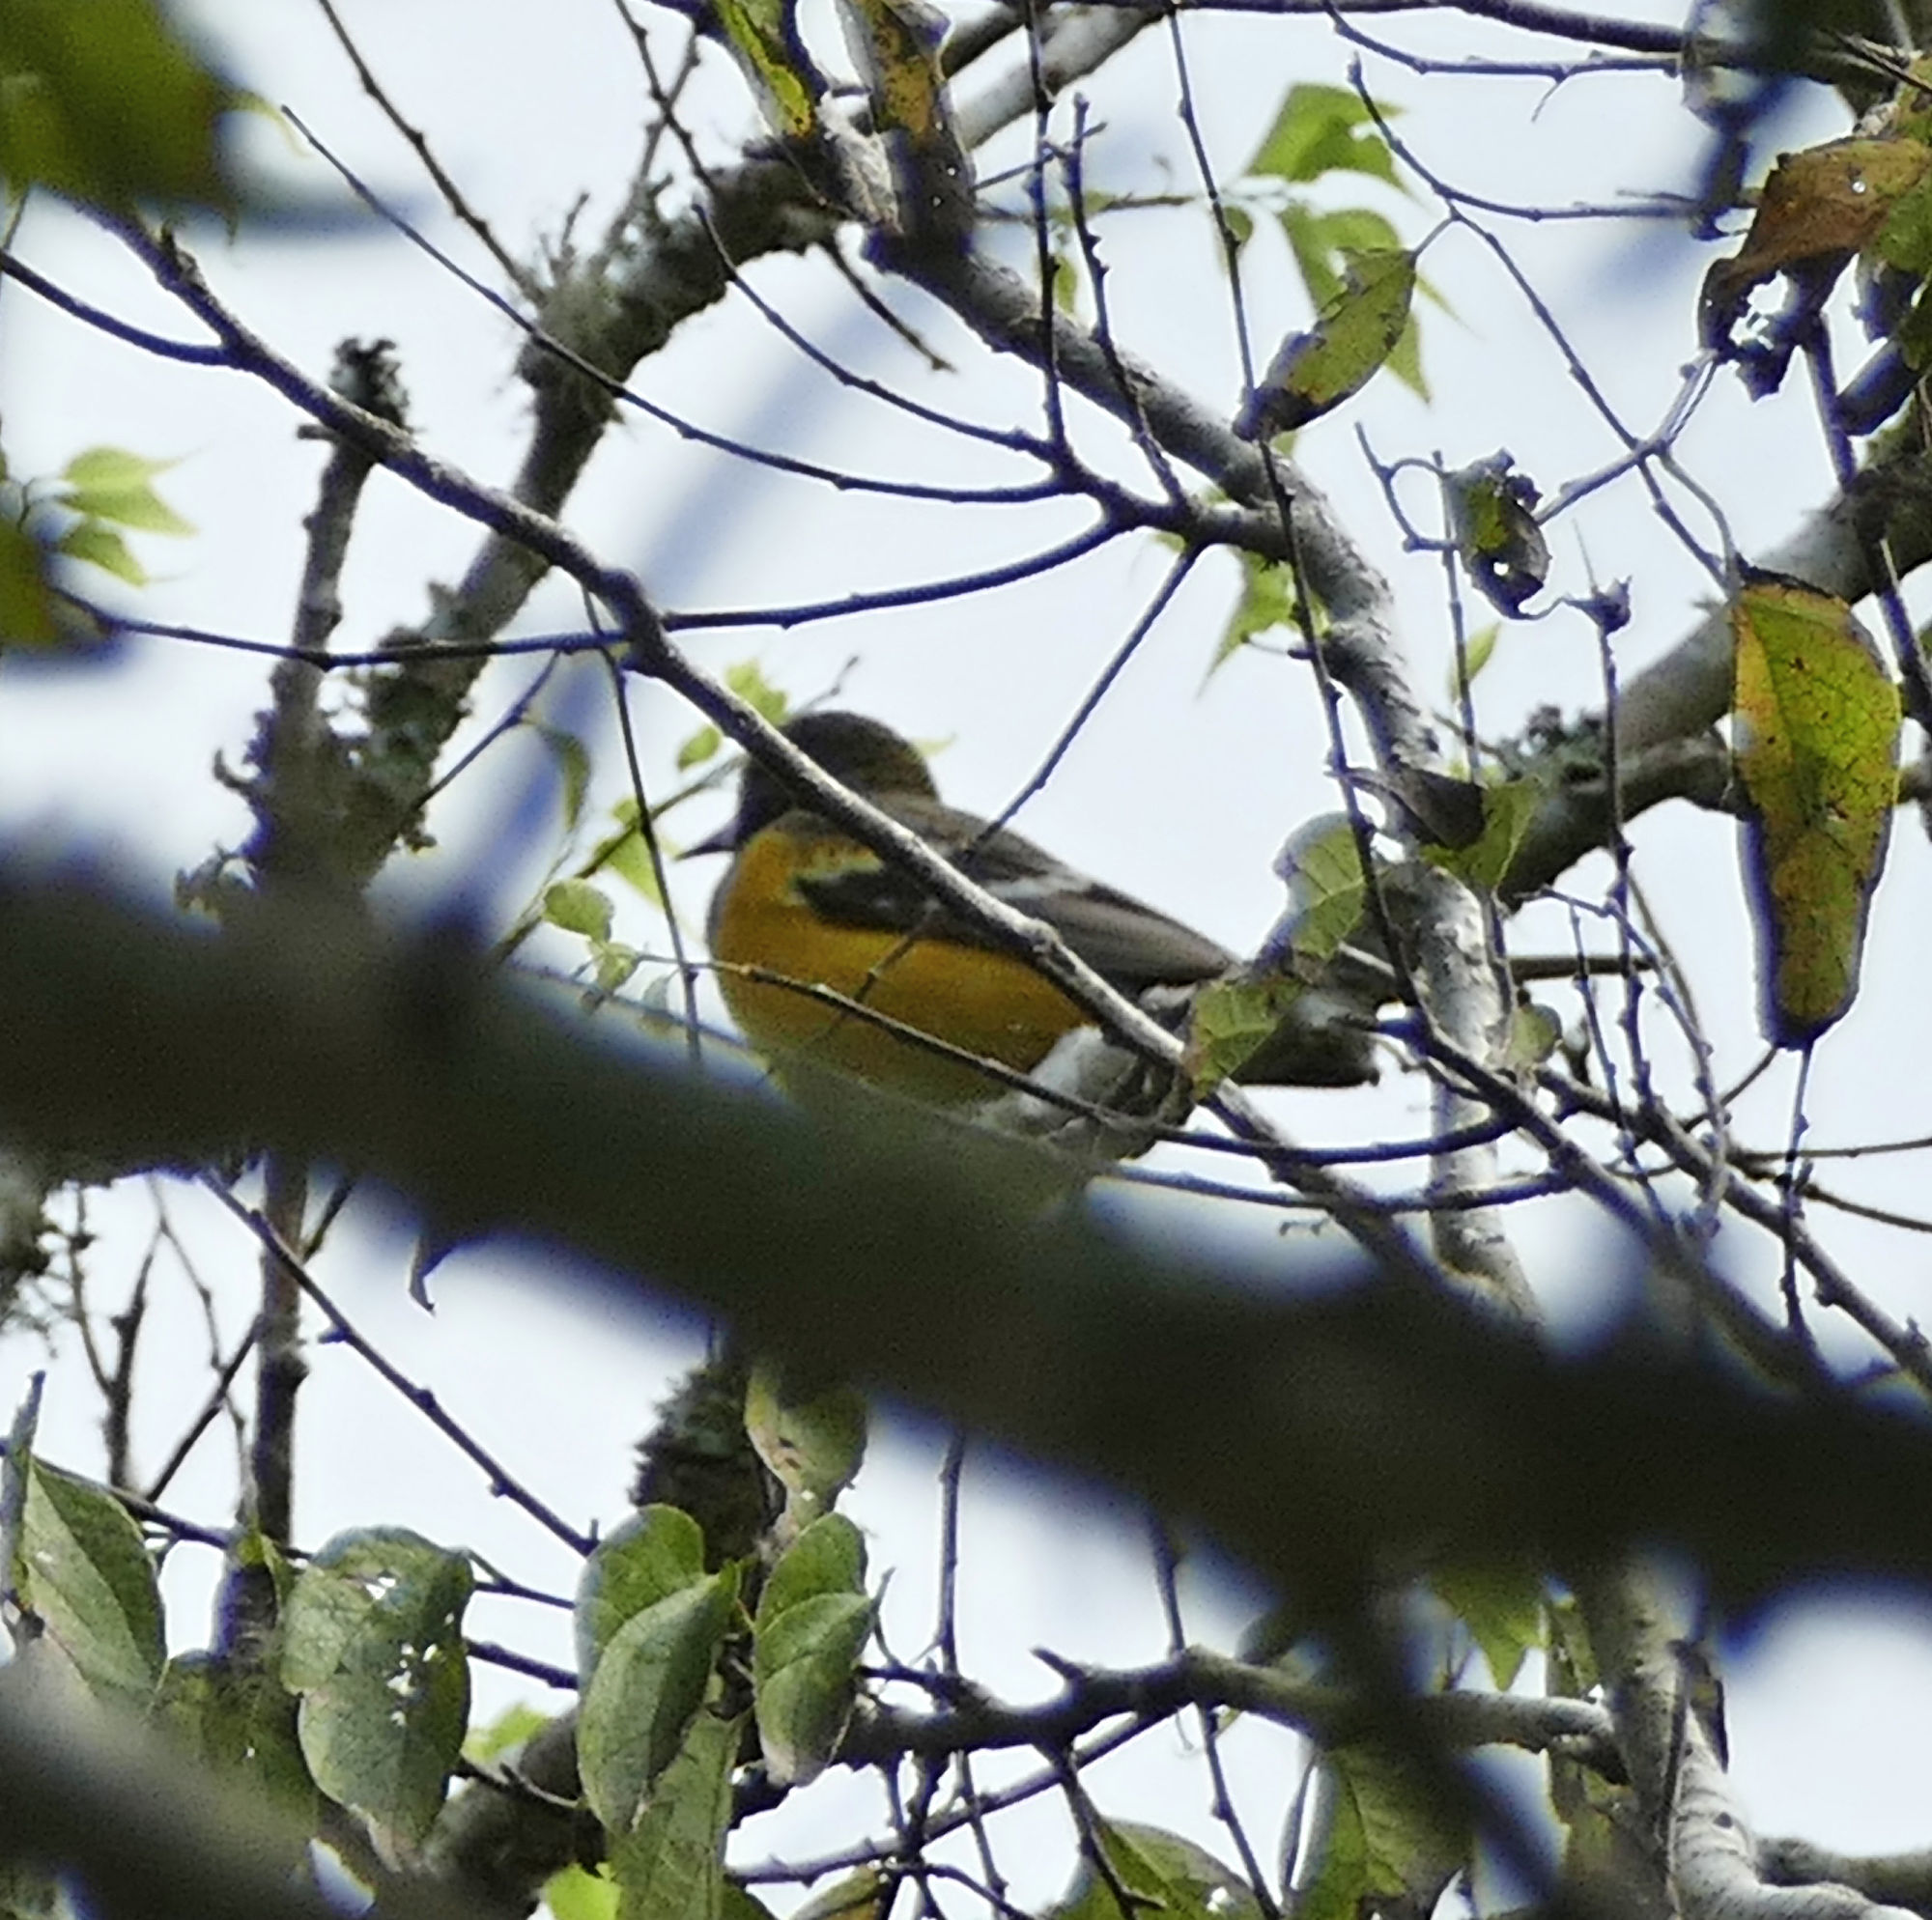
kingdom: Animalia
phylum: Chordata
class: Aves
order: Passeriformes
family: Icteridae
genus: Icterus
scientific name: Icterus parisorum
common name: Scott's oriole
